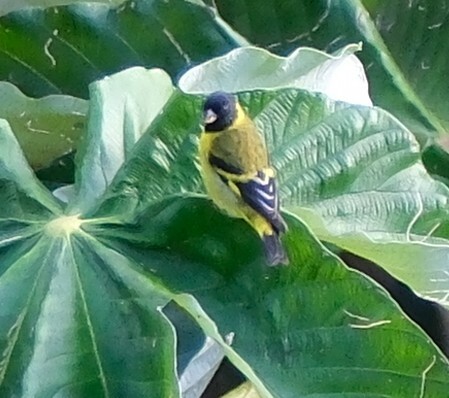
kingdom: Animalia
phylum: Chordata
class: Aves
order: Passeriformes
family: Fringillidae
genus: Spinus
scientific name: Spinus magellanicus
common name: Hooded siskin
